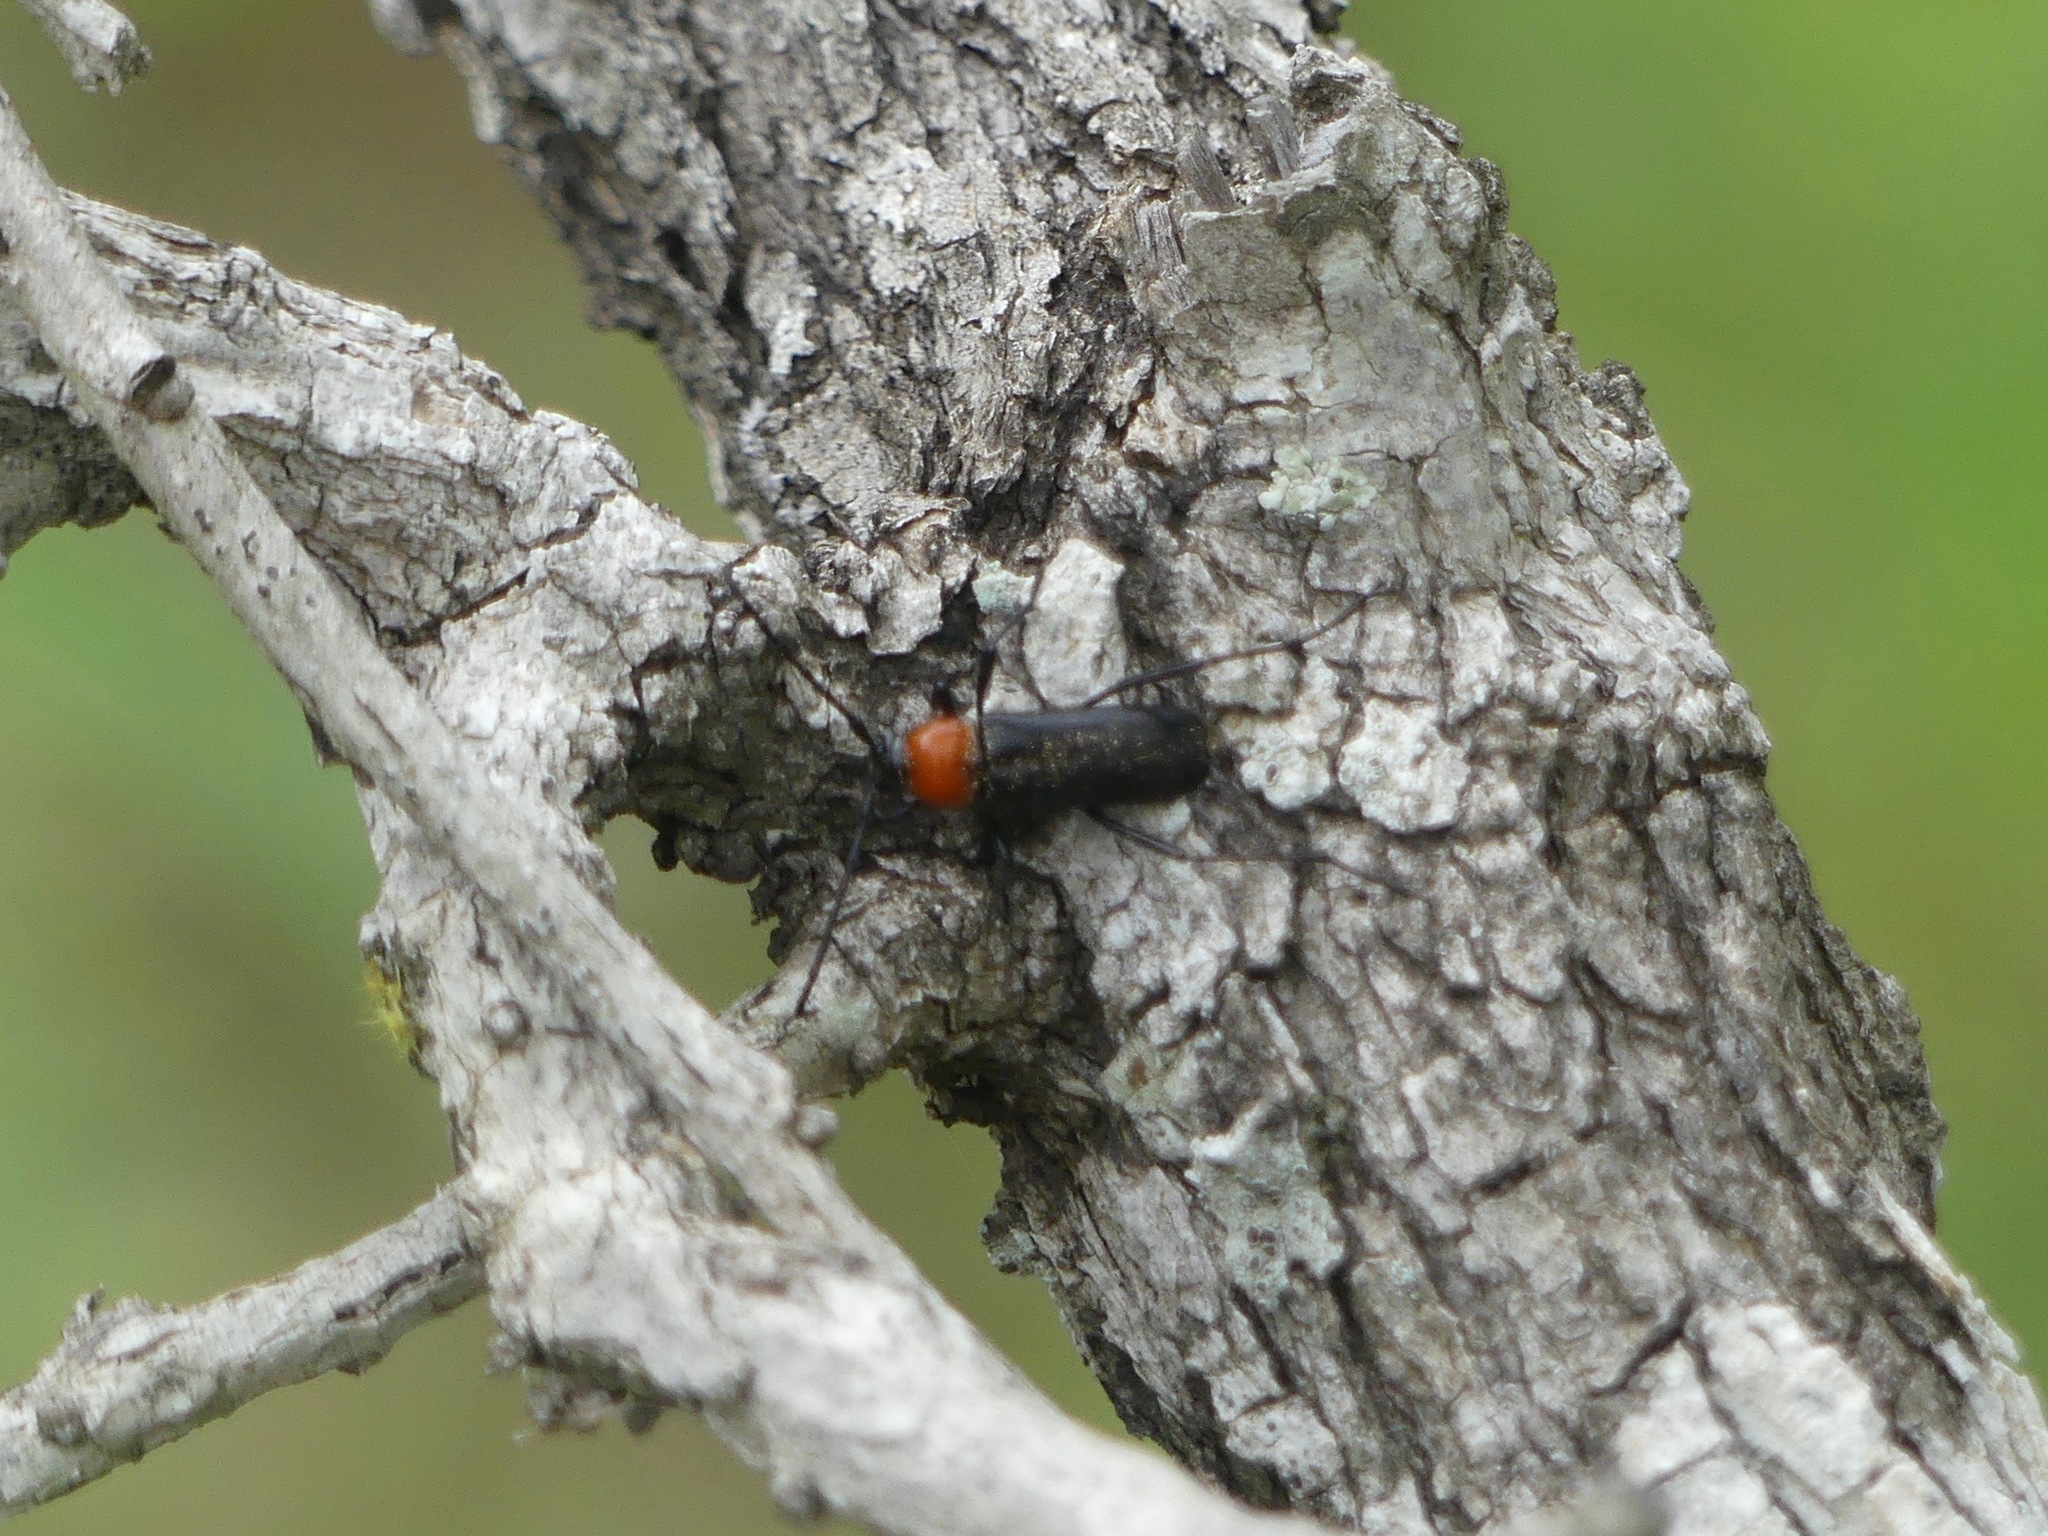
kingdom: Animalia
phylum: Arthropoda
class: Insecta
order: Coleoptera
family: Cerambycidae
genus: Batyle
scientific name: Batyle ignicollis
